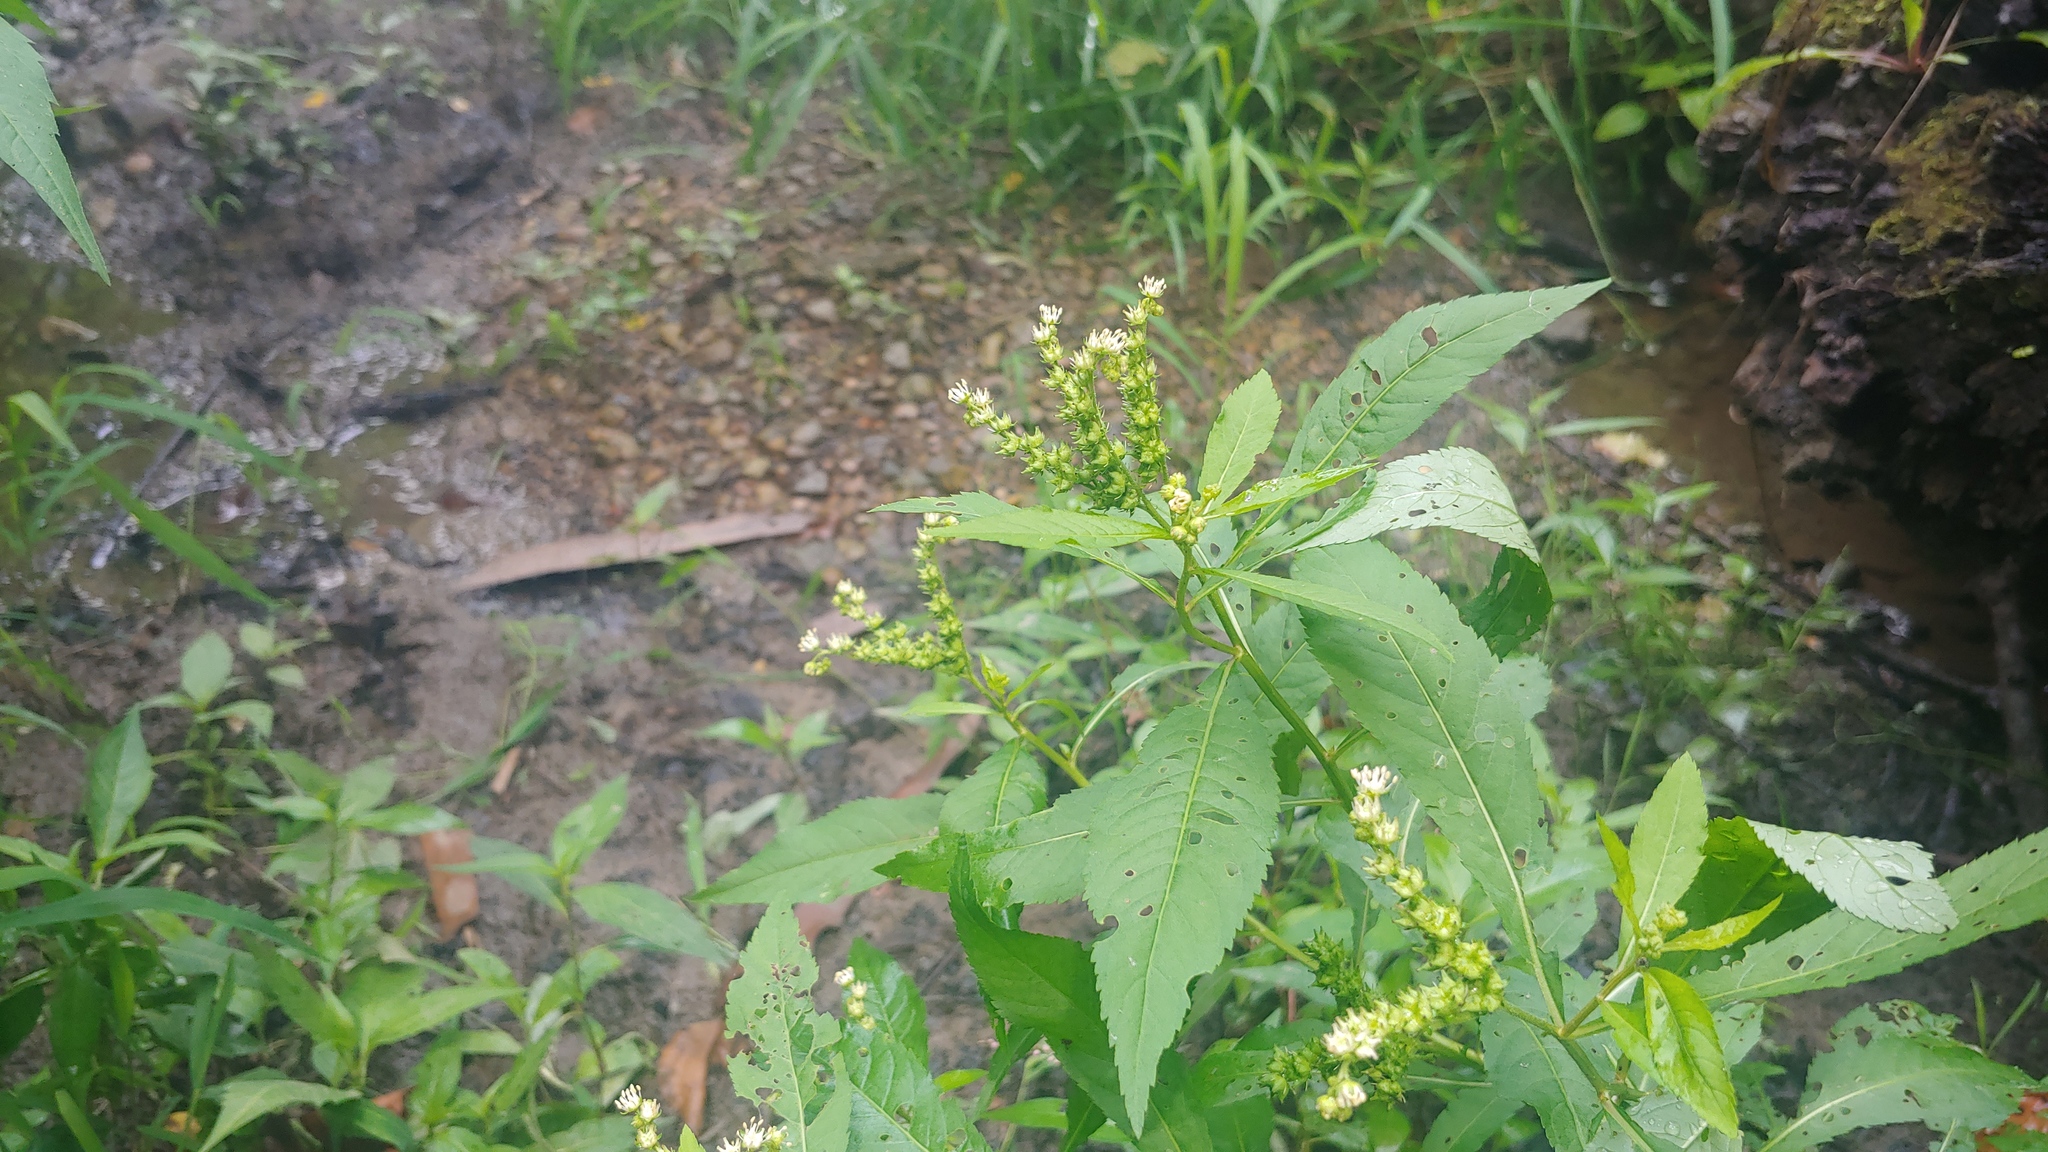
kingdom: Plantae
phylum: Tracheophyta
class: Magnoliopsida
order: Saxifragales
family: Penthoraceae
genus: Penthorum
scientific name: Penthorum sedoides
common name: Ditch stonecrop
